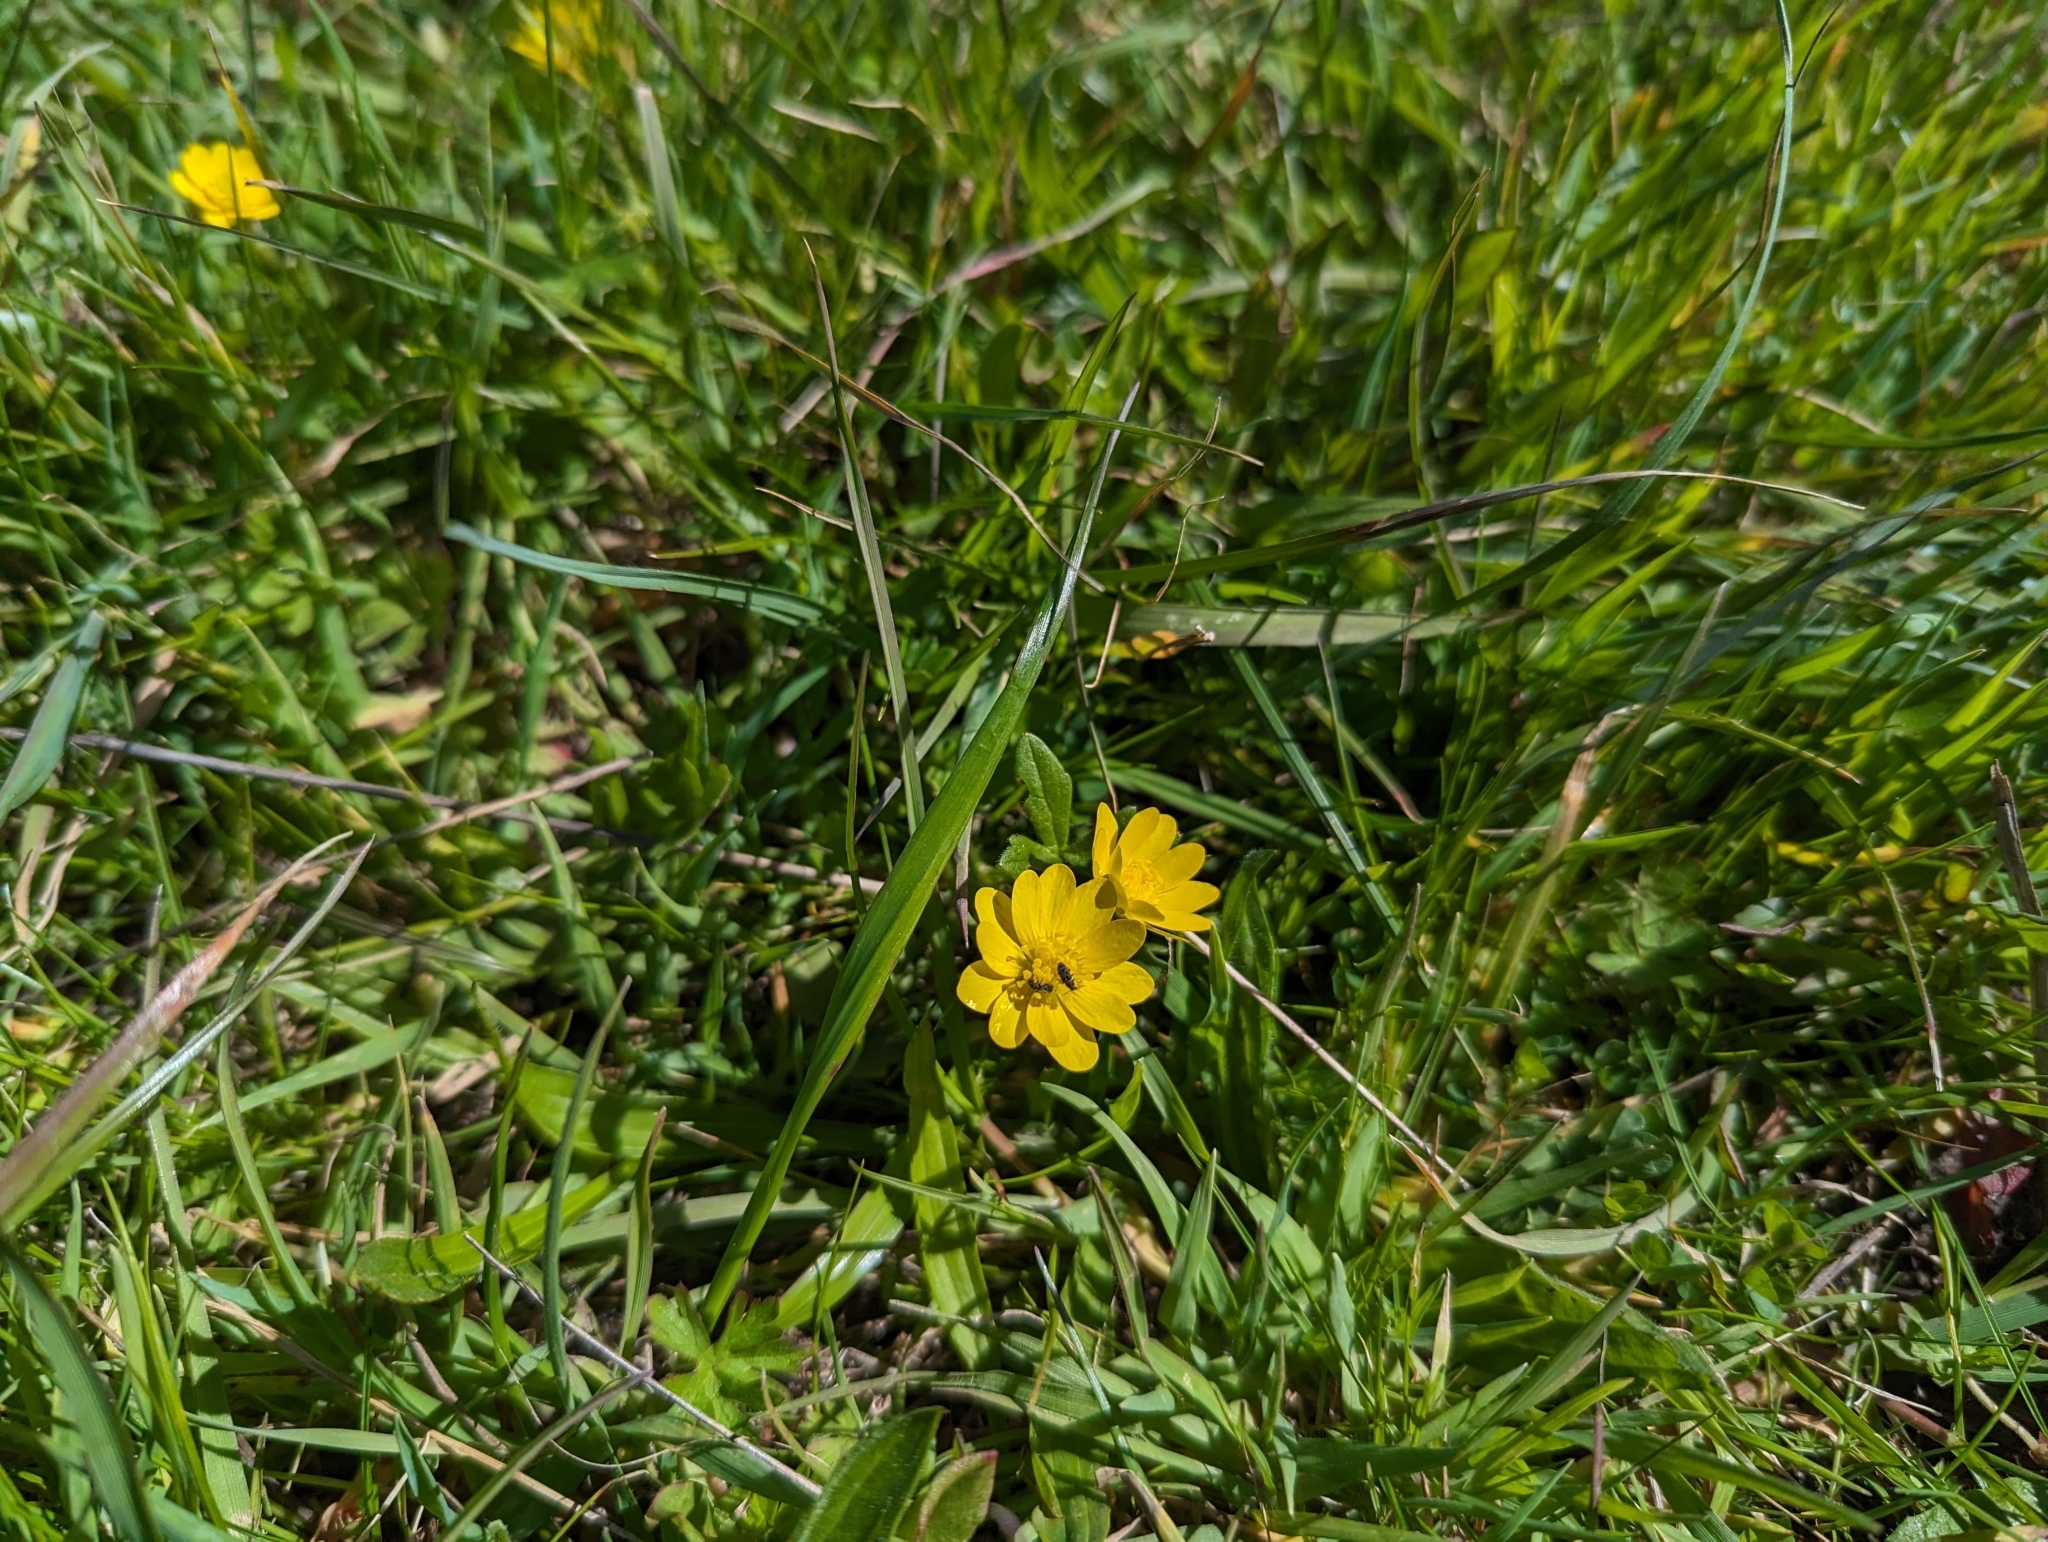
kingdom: Plantae
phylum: Tracheophyta
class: Magnoliopsida
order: Ranunculales
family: Ranunculaceae
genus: Ranunculus
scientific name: Ranunculus californicus
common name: California buttercup
